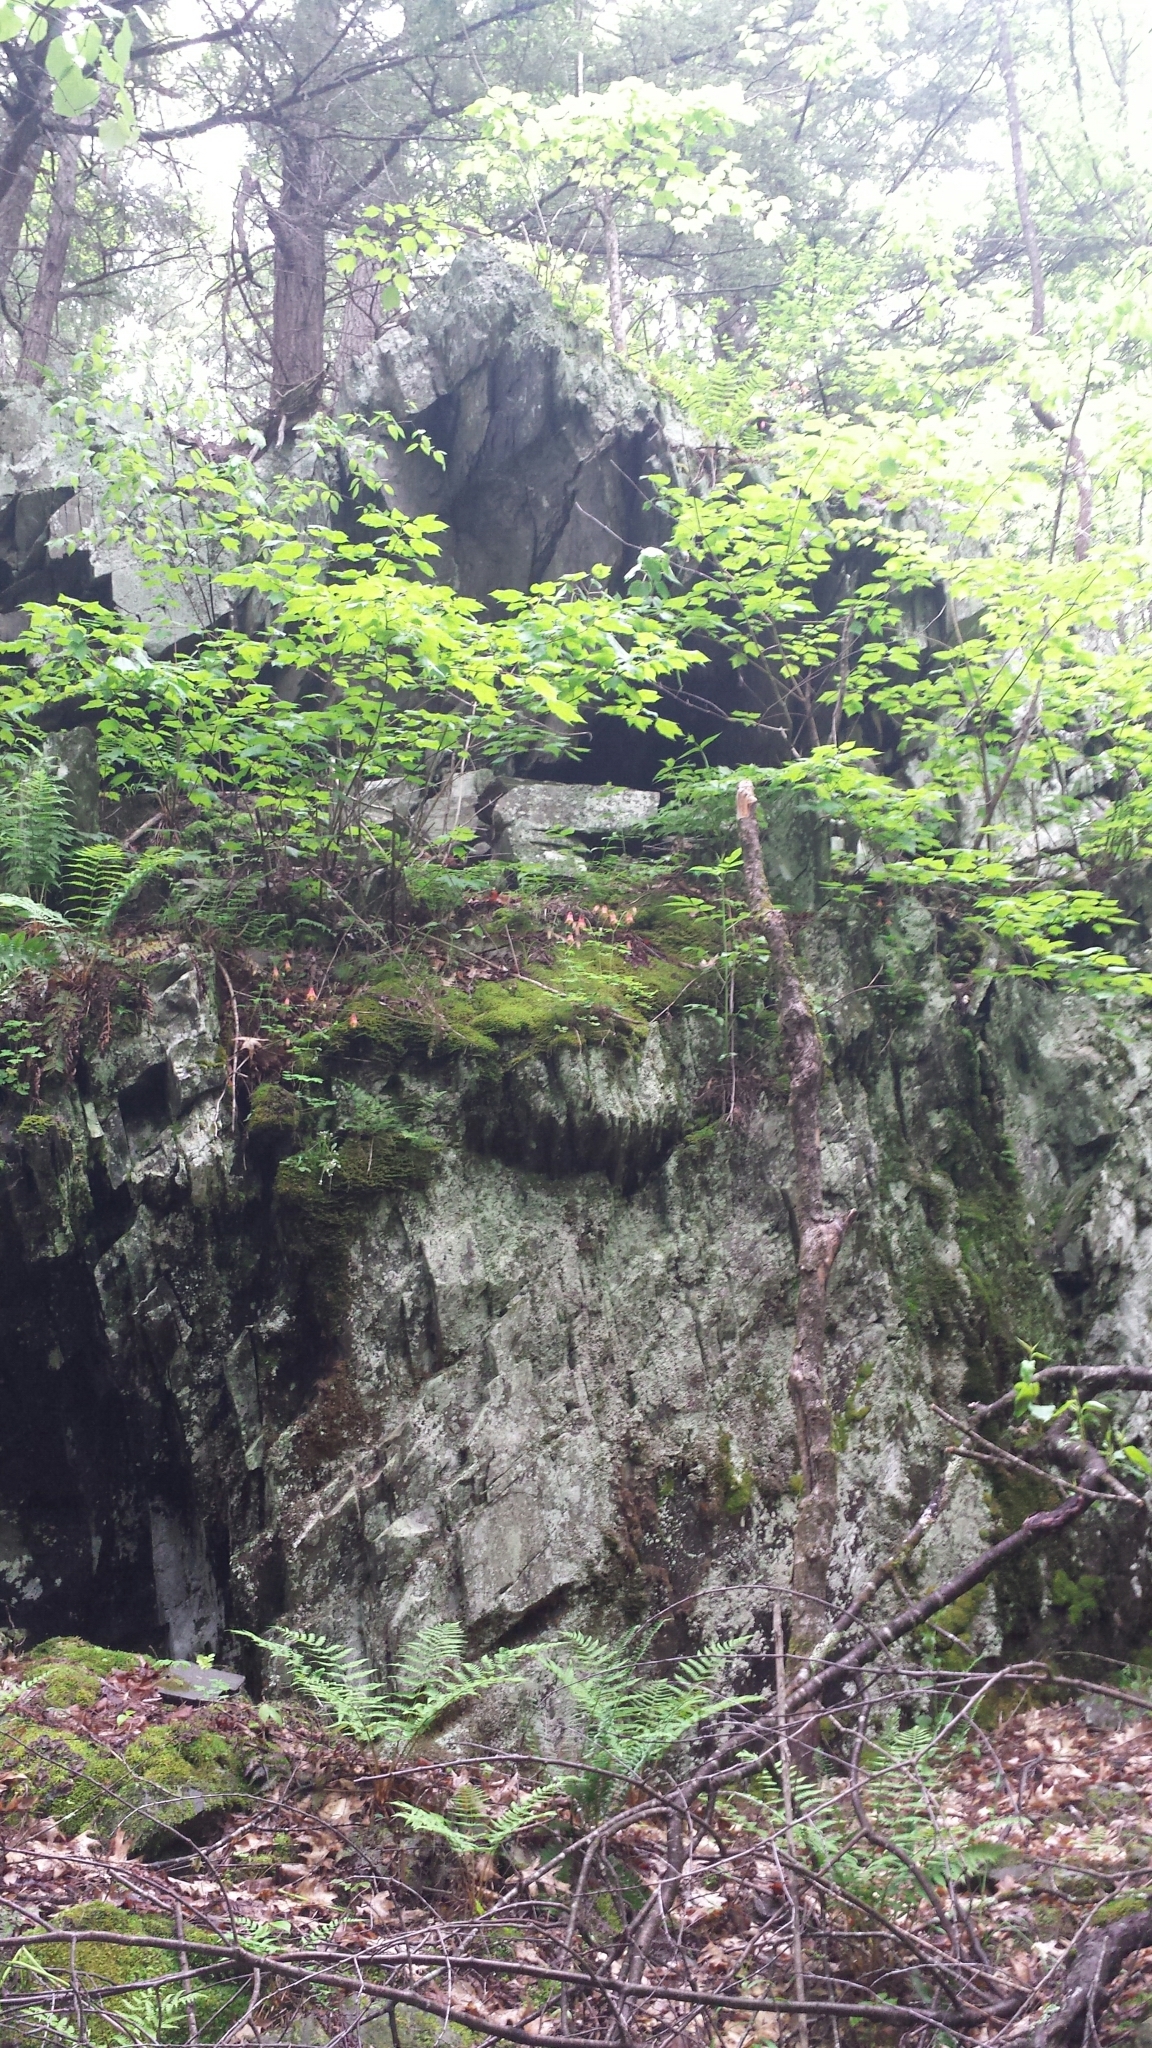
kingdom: Plantae
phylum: Tracheophyta
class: Magnoliopsida
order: Ranunculales
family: Ranunculaceae
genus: Aquilegia
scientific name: Aquilegia canadensis
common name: American columbine
